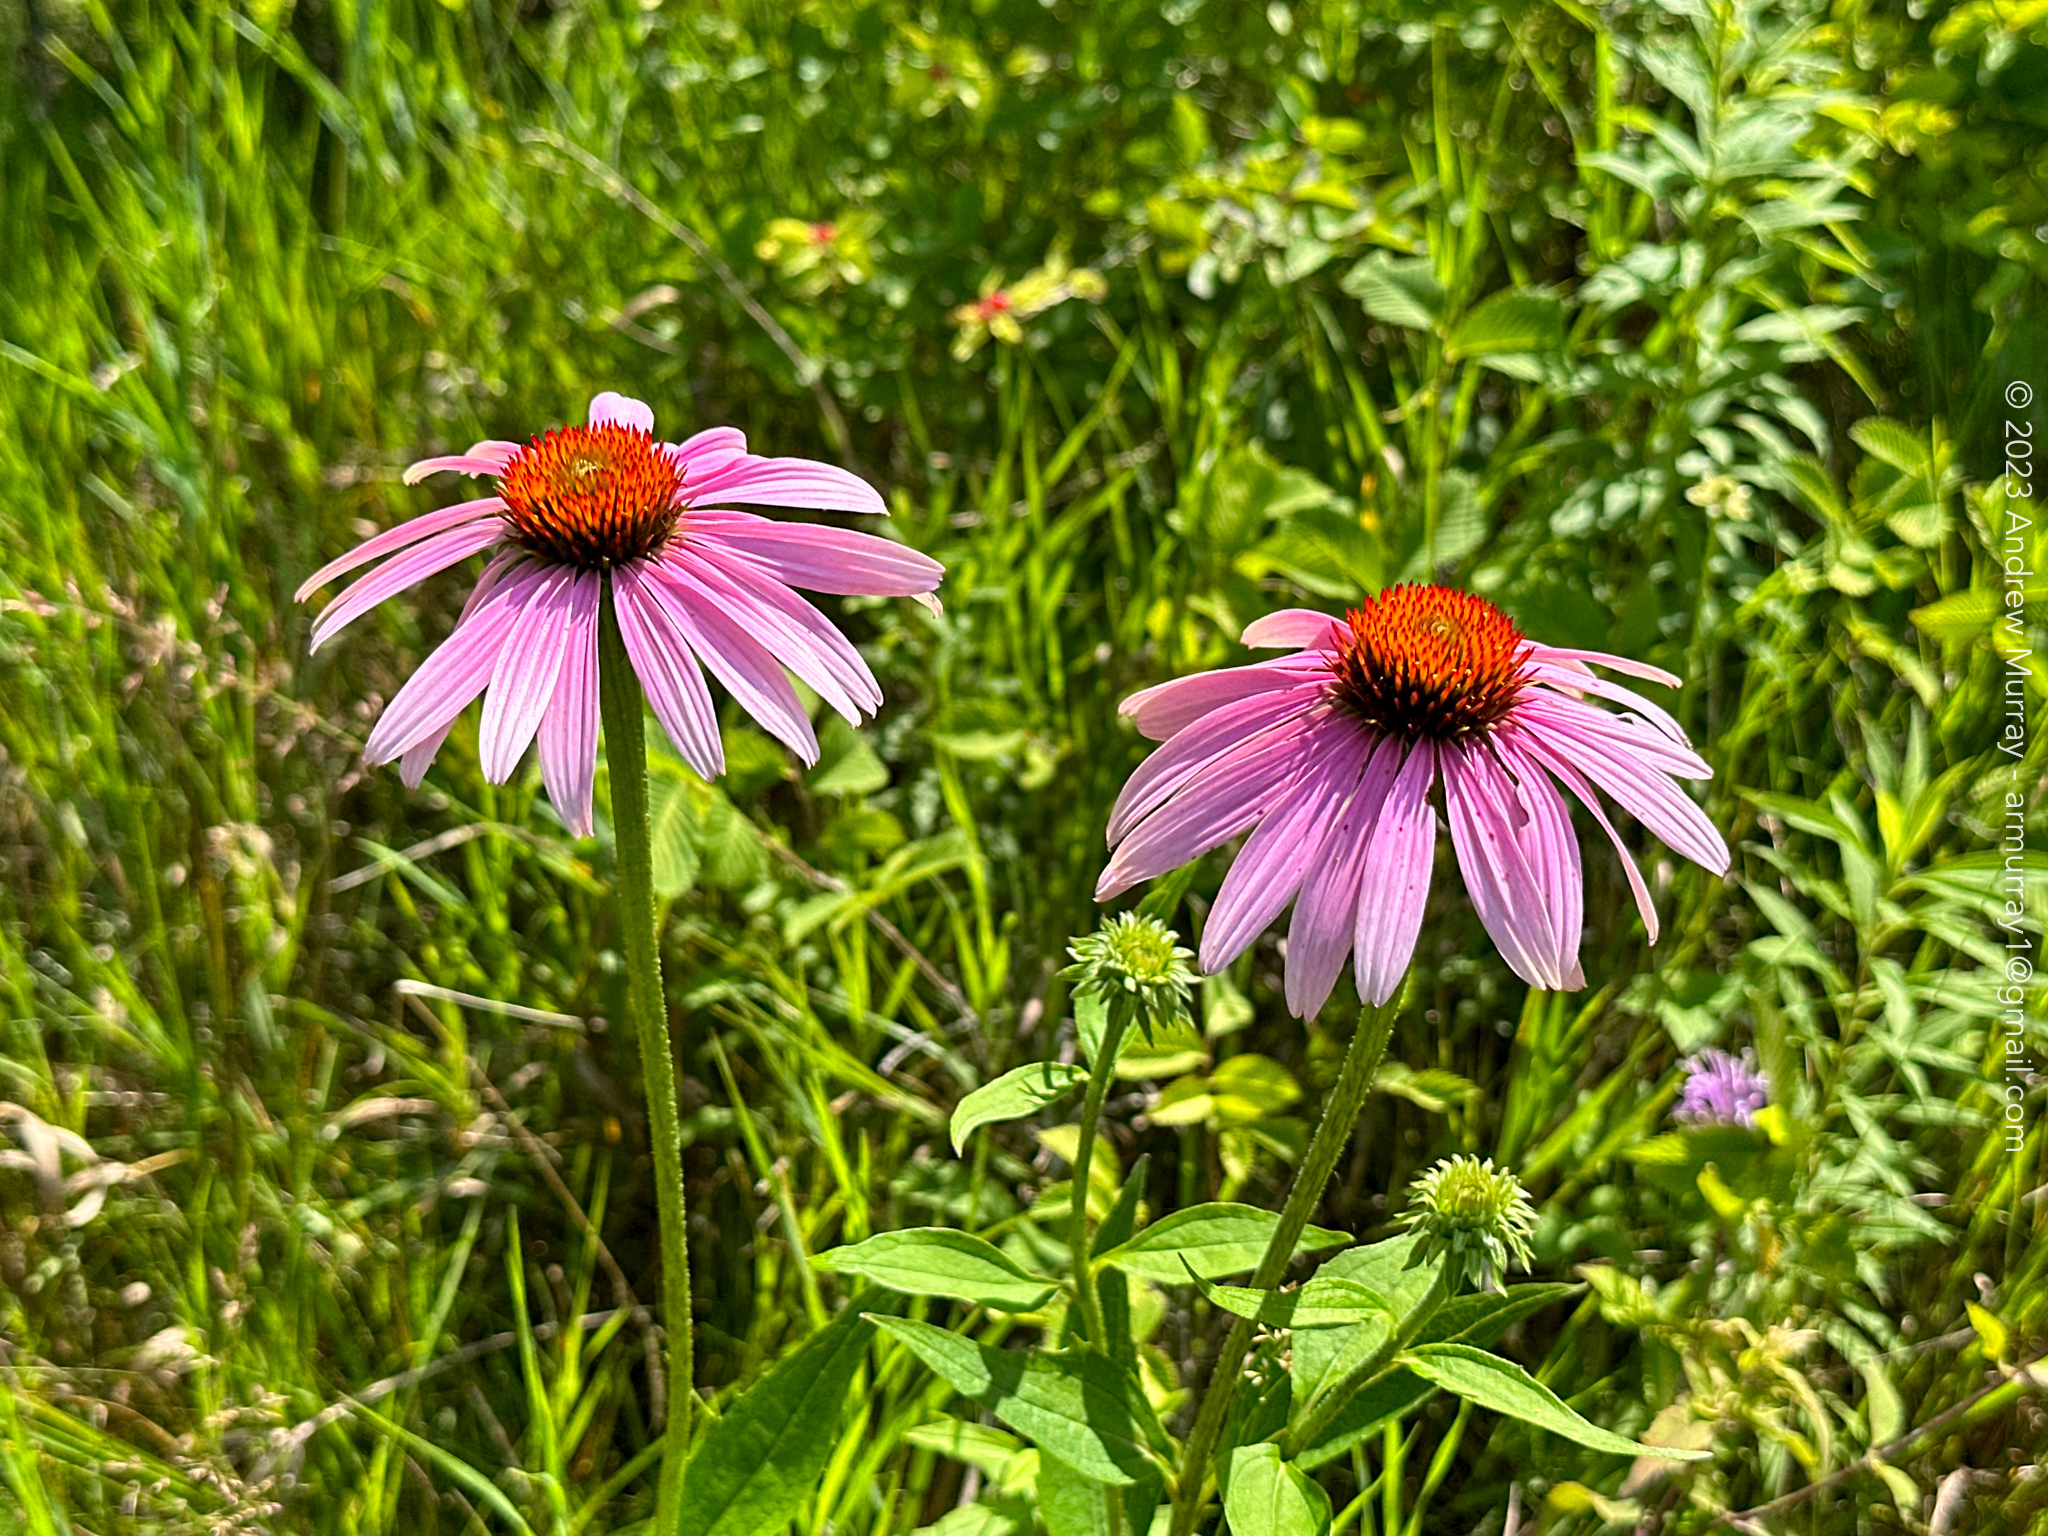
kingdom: Plantae
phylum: Tracheophyta
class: Magnoliopsida
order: Asterales
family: Asteraceae
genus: Echinacea
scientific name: Echinacea purpurea
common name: Broad-leaved purple coneflower
